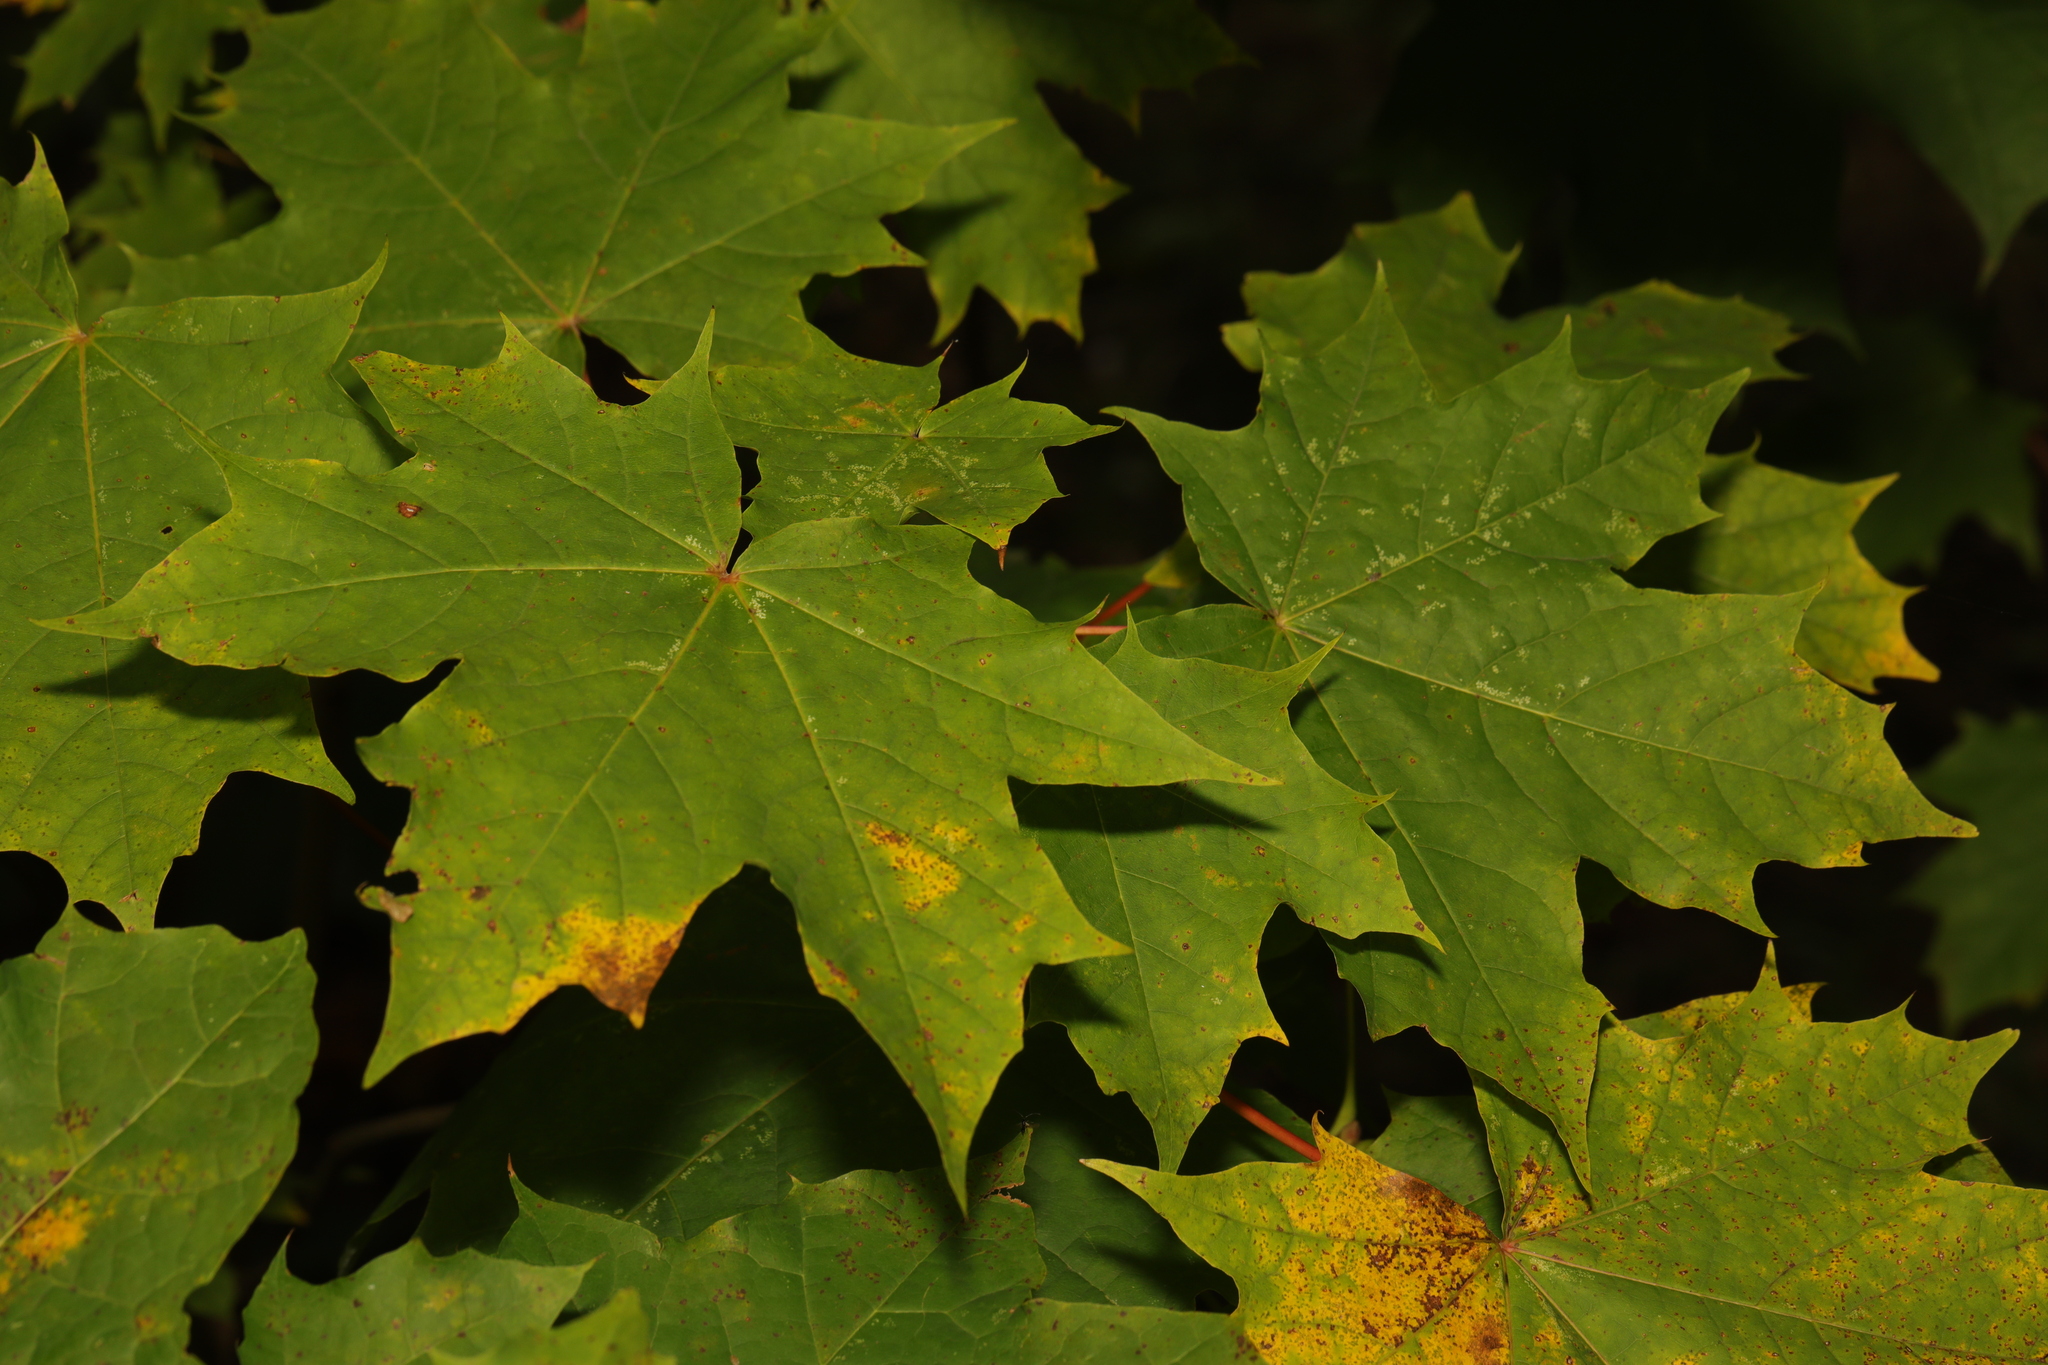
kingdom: Plantae
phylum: Tracheophyta
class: Magnoliopsida
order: Sapindales
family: Sapindaceae
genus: Acer
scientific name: Acer platanoides
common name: Norway maple
